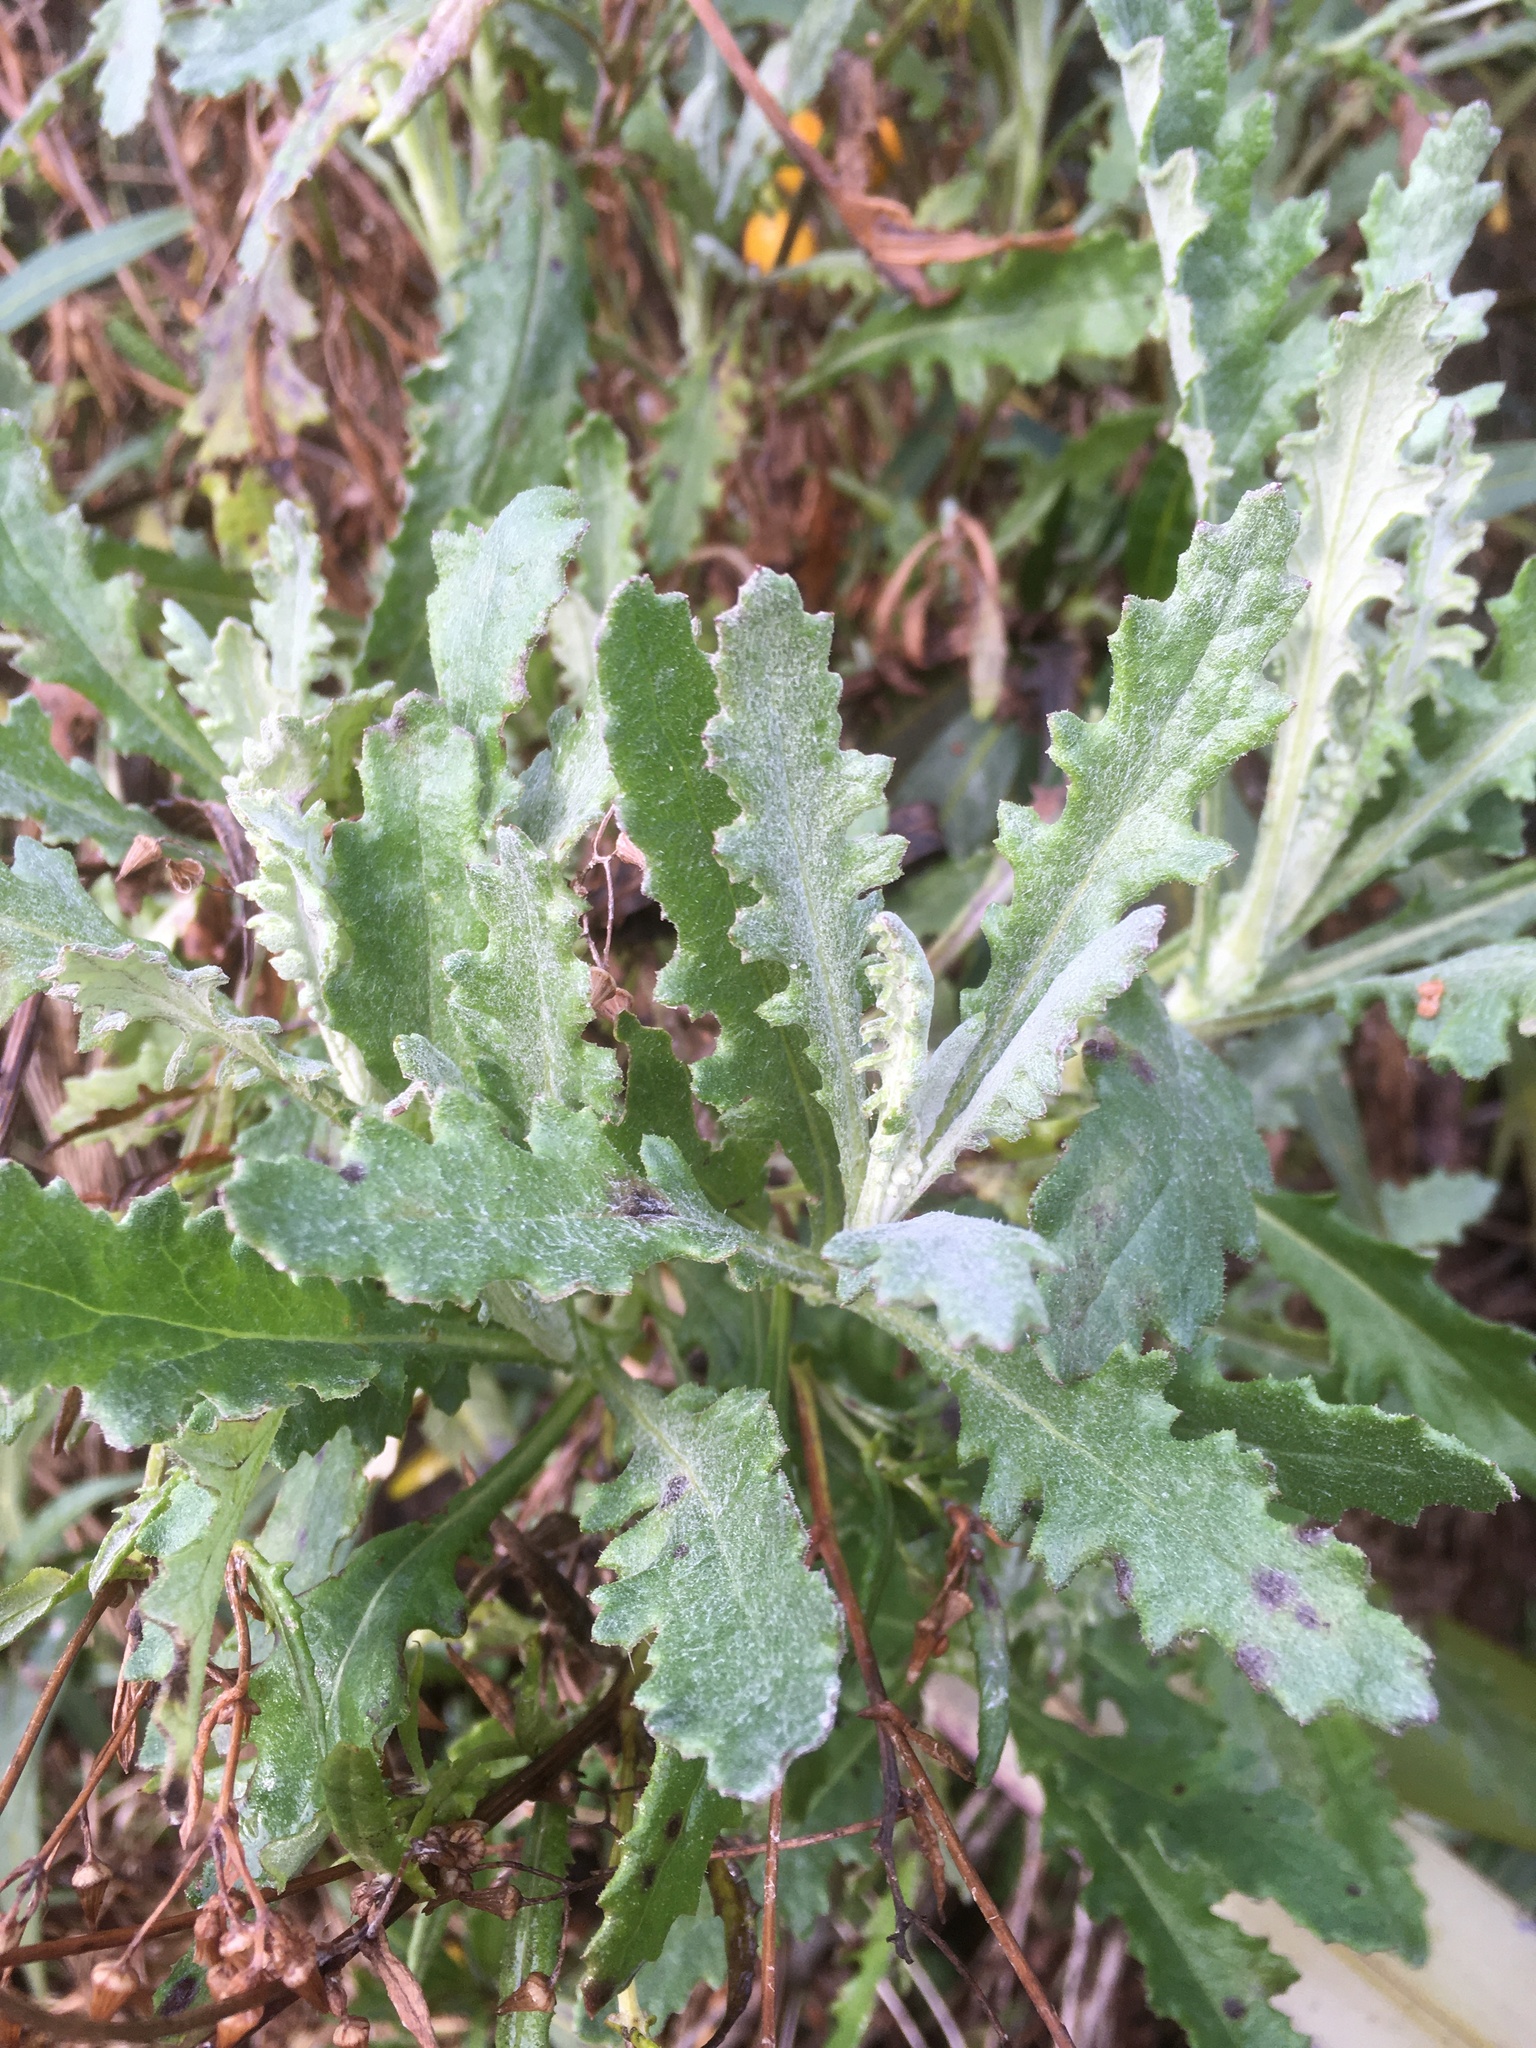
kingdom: Plantae
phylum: Tracheophyta
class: Magnoliopsida
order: Asterales
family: Asteraceae
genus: Senecio
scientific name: Senecio glomeratus
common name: Cutleaf burnweed
